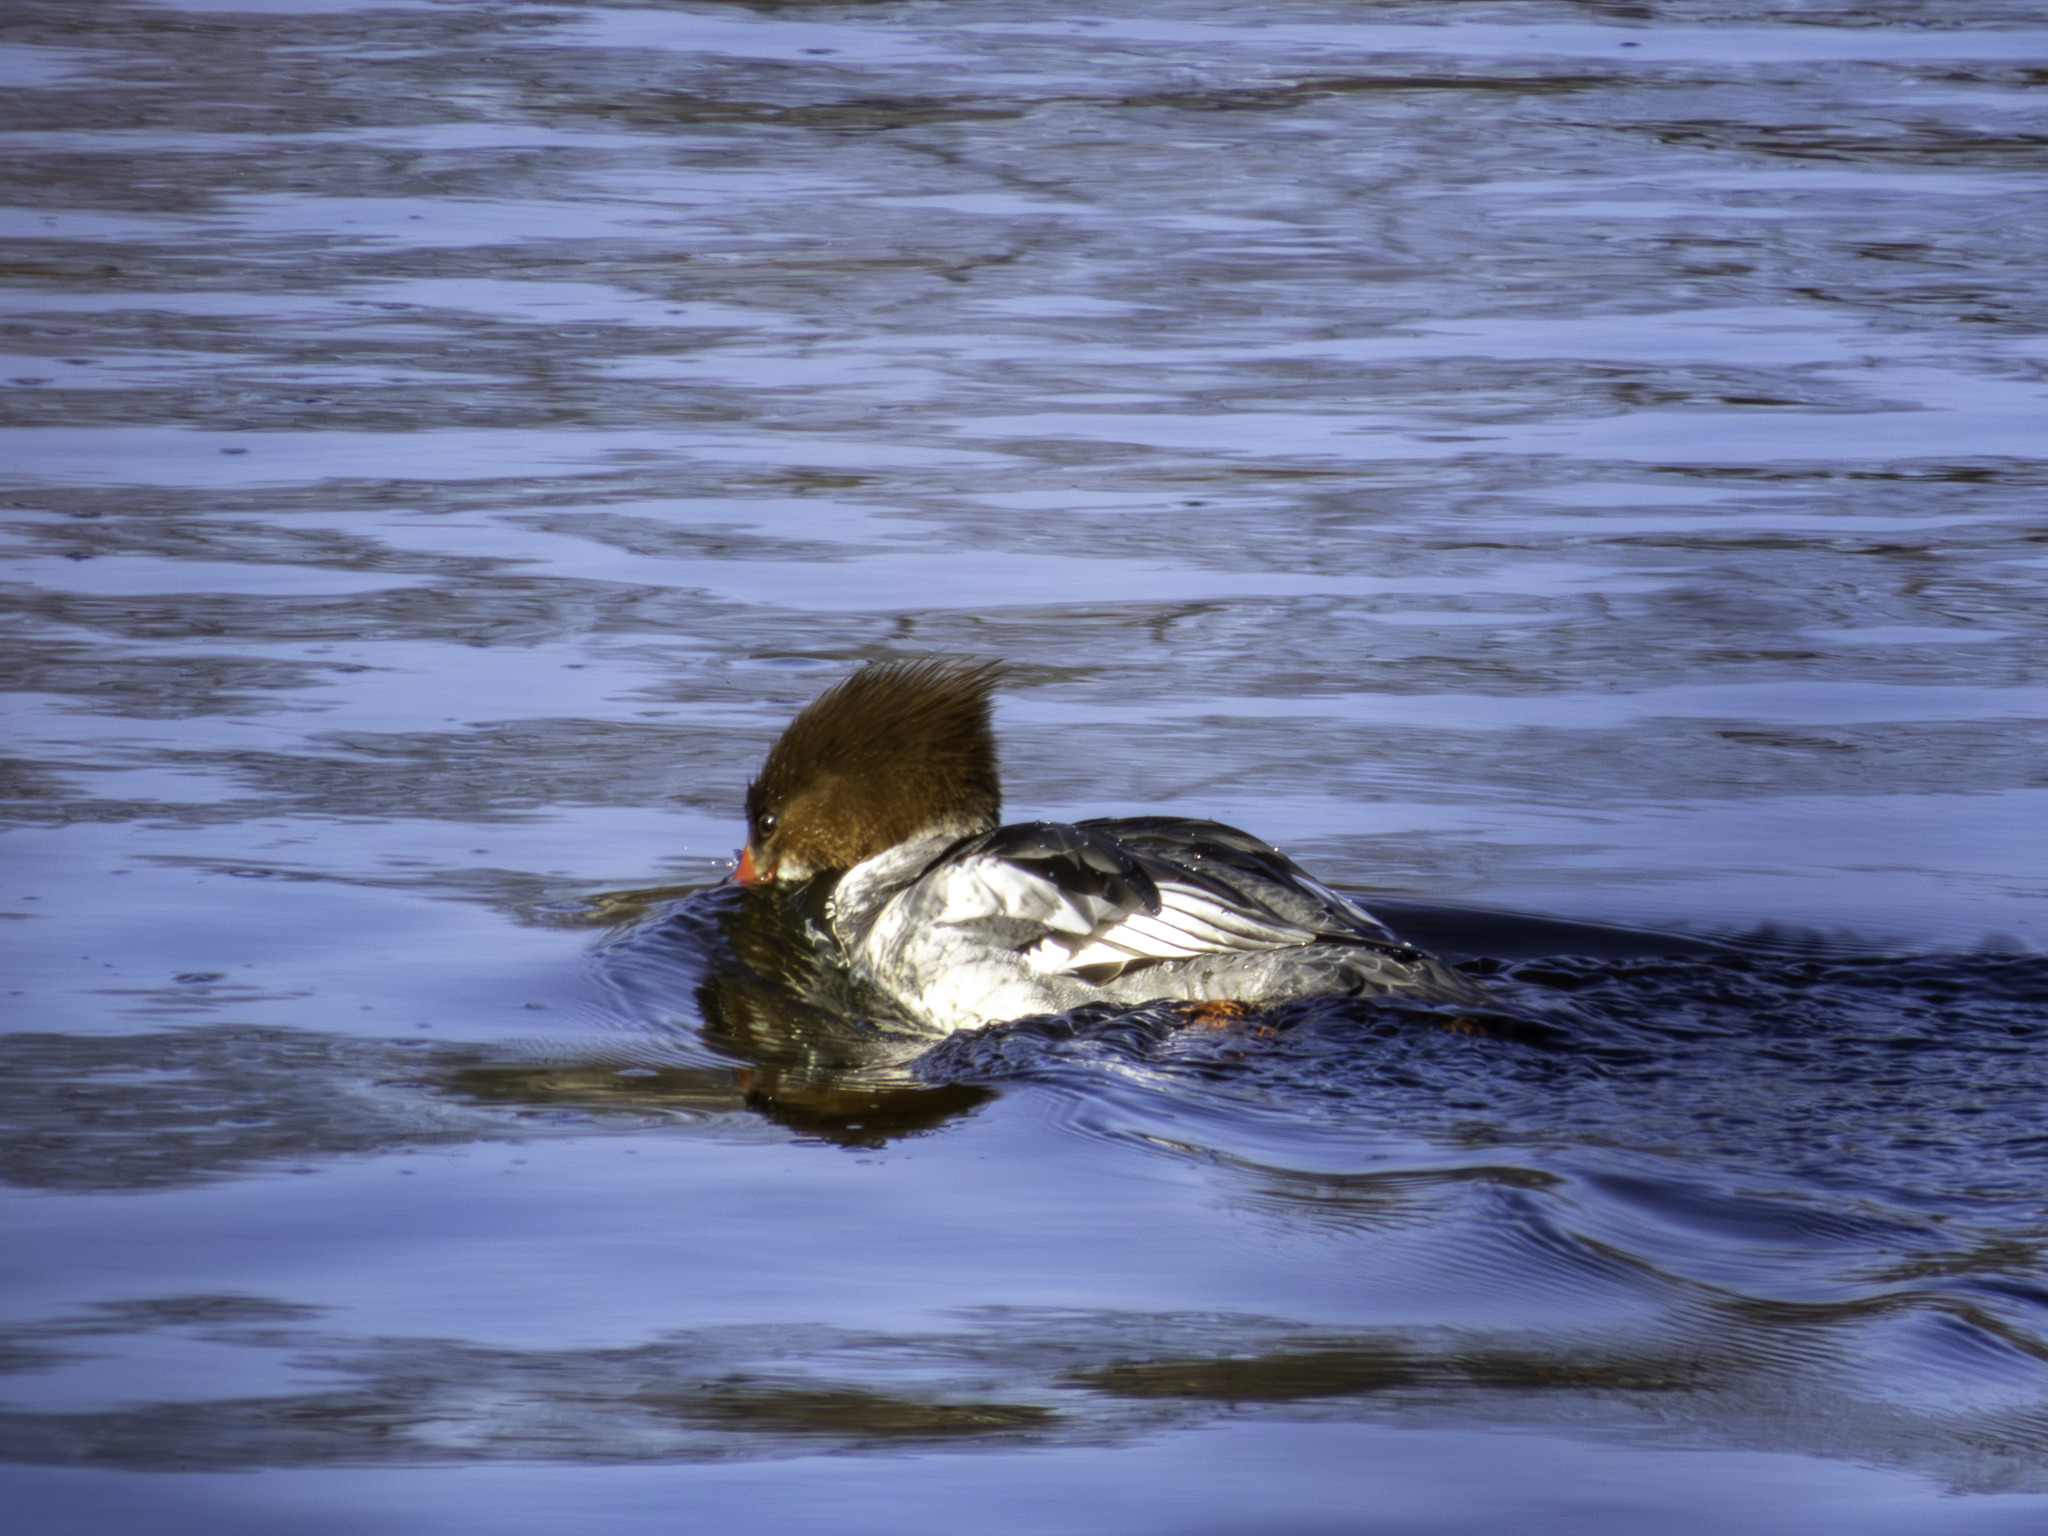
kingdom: Animalia
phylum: Chordata
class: Aves
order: Anseriformes
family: Anatidae
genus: Mergus
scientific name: Mergus merganser
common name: Common merganser
